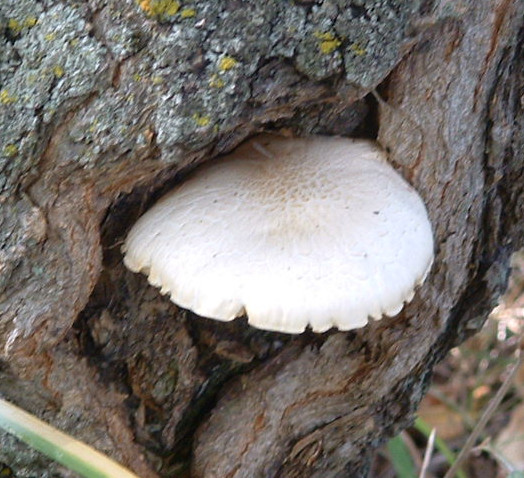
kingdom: Fungi
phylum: Basidiomycota
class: Agaricomycetes
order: Agaricales
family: Lyophyllaceae
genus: Hypsizygus
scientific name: Hypsizygus ulmarius
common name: Elm leech
